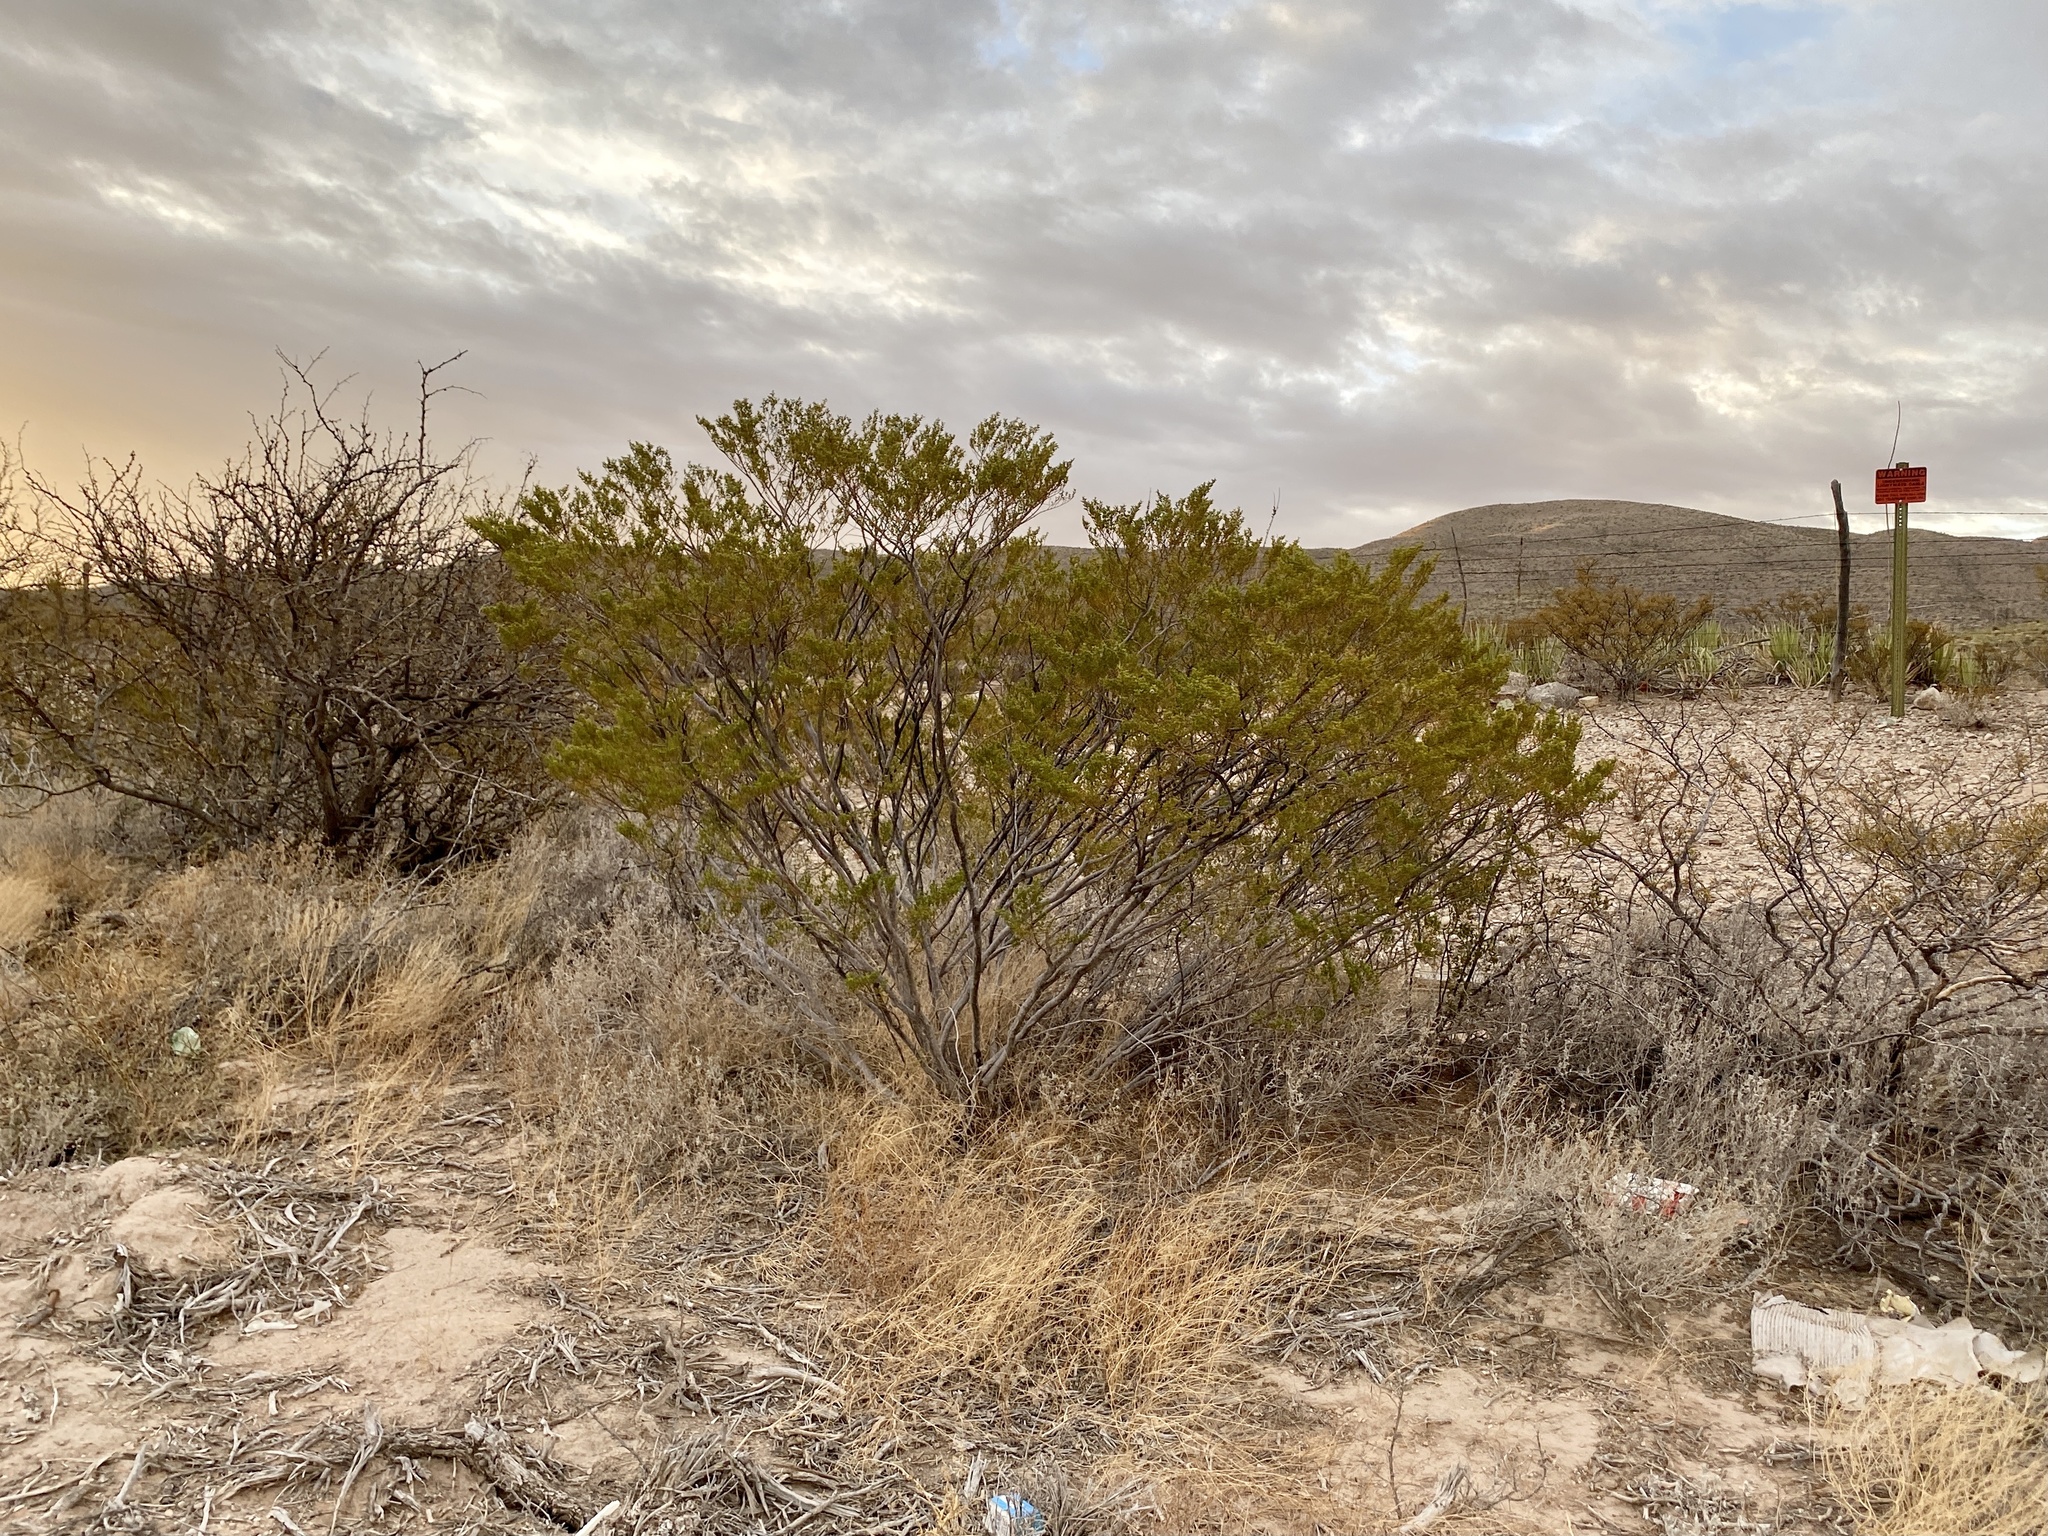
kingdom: Plantae
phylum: Tracheophyta
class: Magnoliopsida
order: Zygophyllales
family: Zygophyllaceae
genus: Larrea
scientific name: Larrea tridentata
